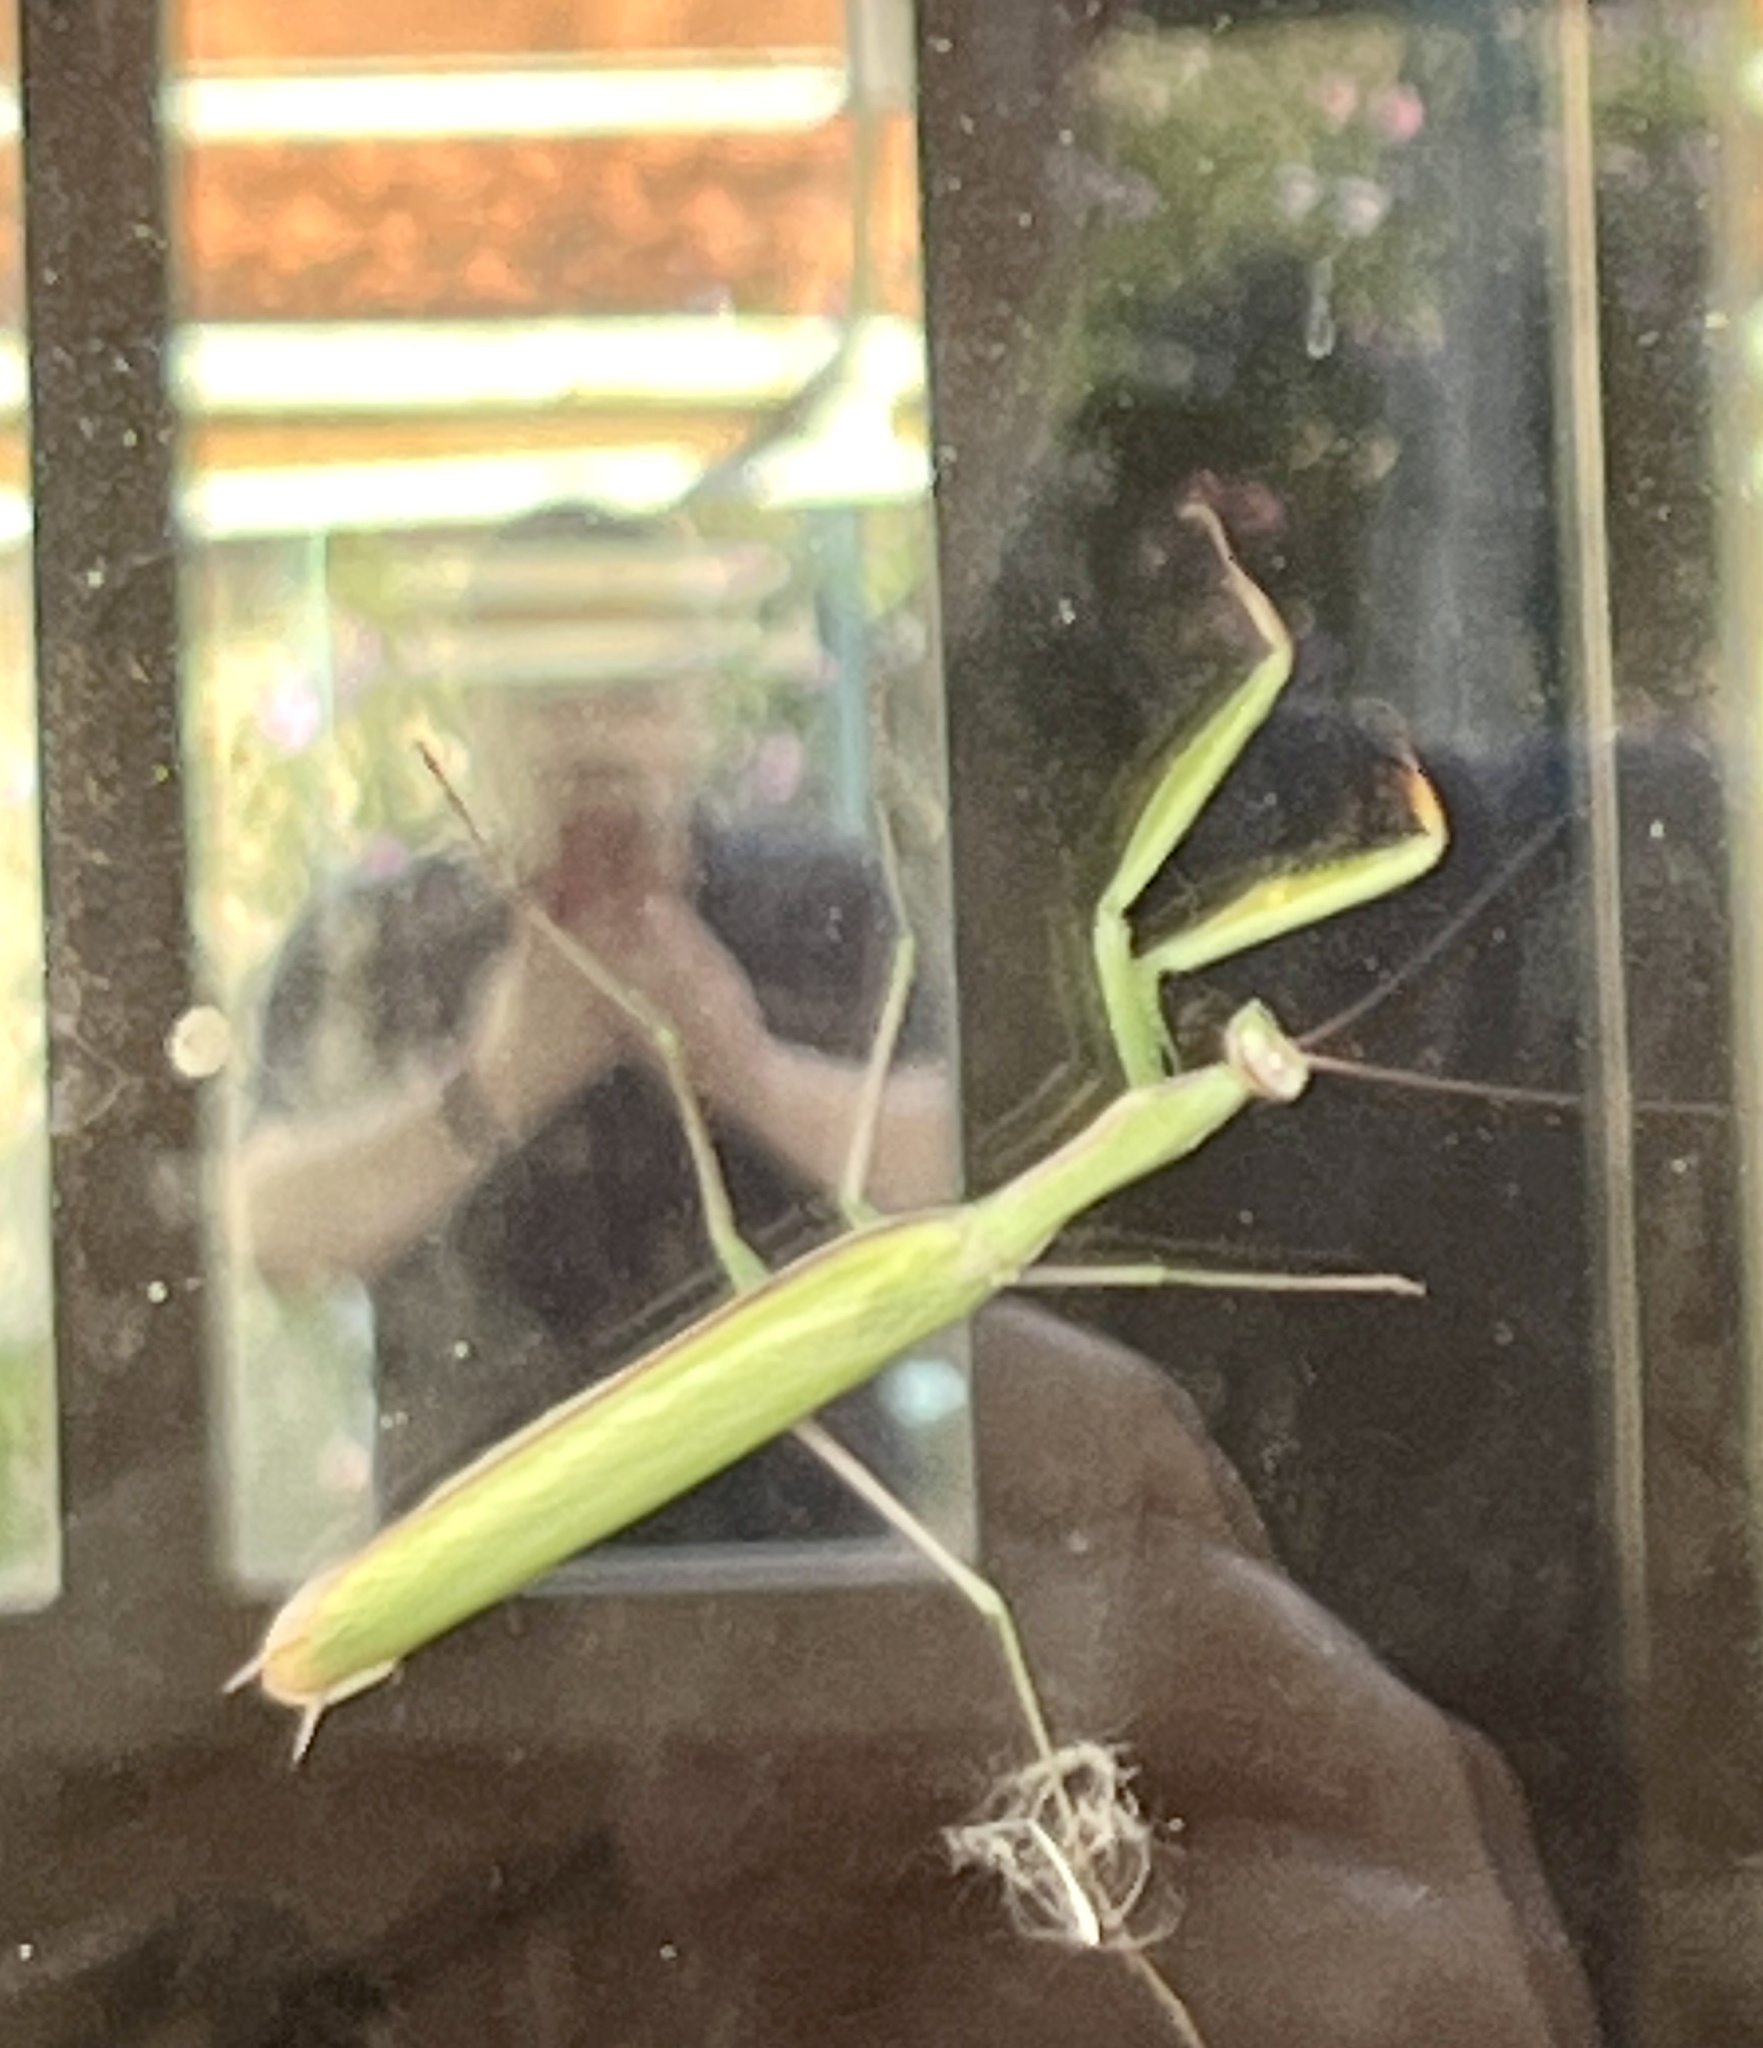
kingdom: Animalia
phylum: Arthropoda
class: Insecta
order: Mantodea
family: Mantidae
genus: Mantis
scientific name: Mantis religiosa
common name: Praying mantis
